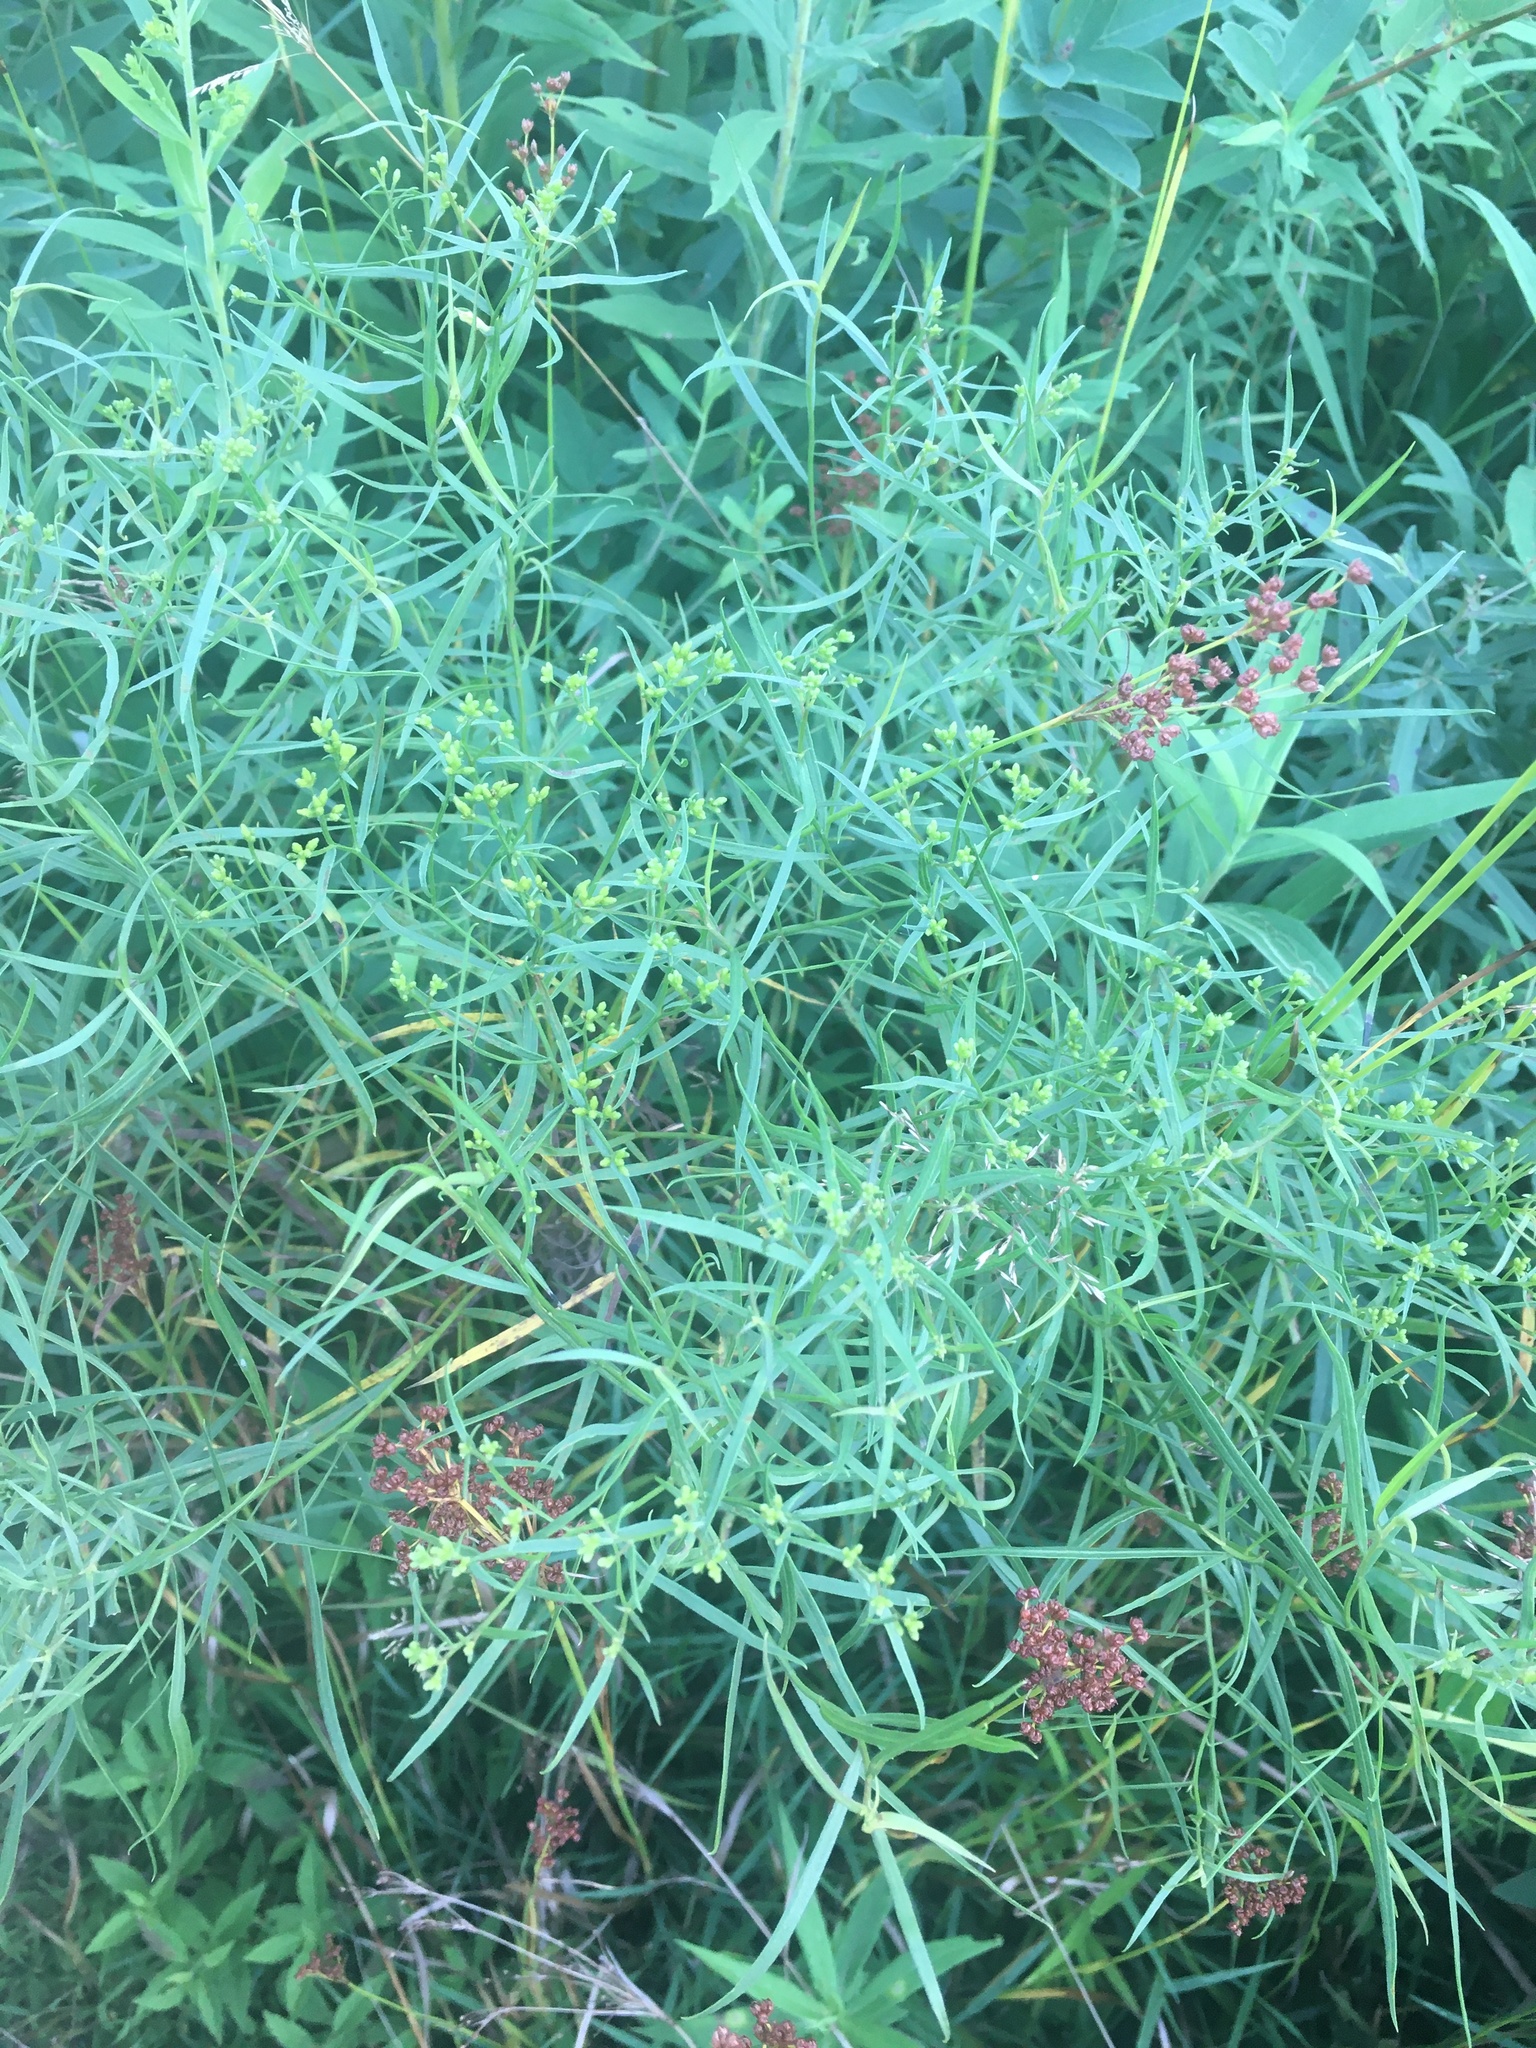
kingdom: Plantae
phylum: Tracheophyta
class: Magnoliopsida
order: Asterales
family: Asteraceae
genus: Euthamia
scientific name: Euthamia caroliniana
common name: Coastal plain goldentop
